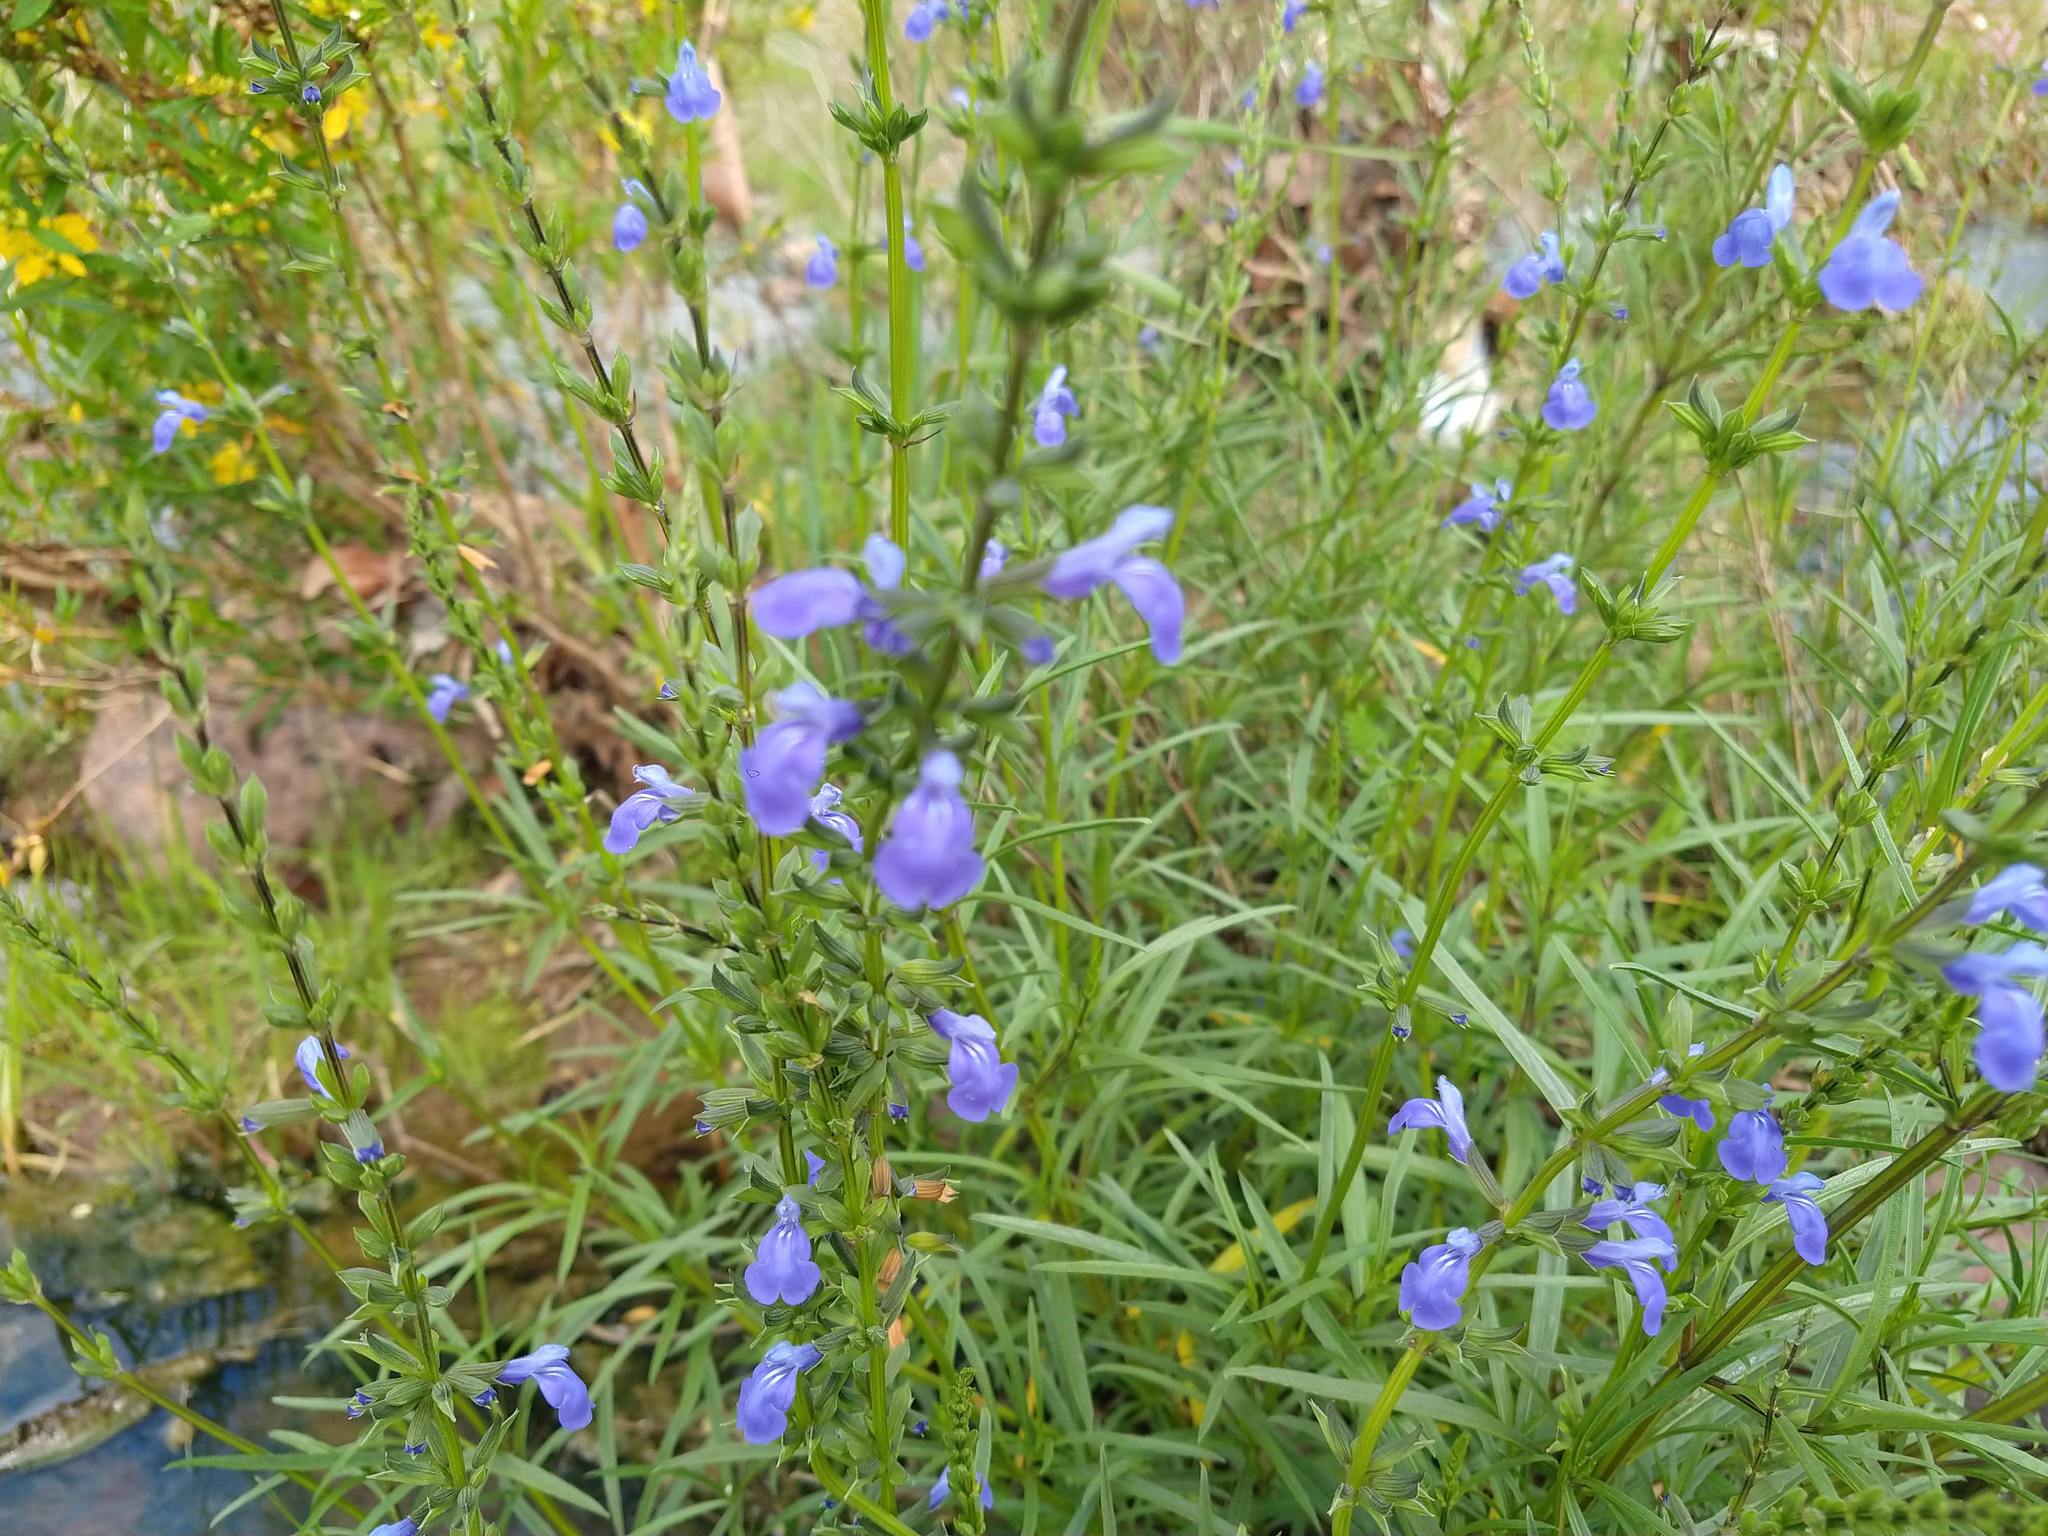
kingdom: Plantae
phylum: Tracheophyta
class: Magnoliopsida
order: Lamiales
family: Lamiaceae
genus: Salvia
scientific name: Salvia reptans
